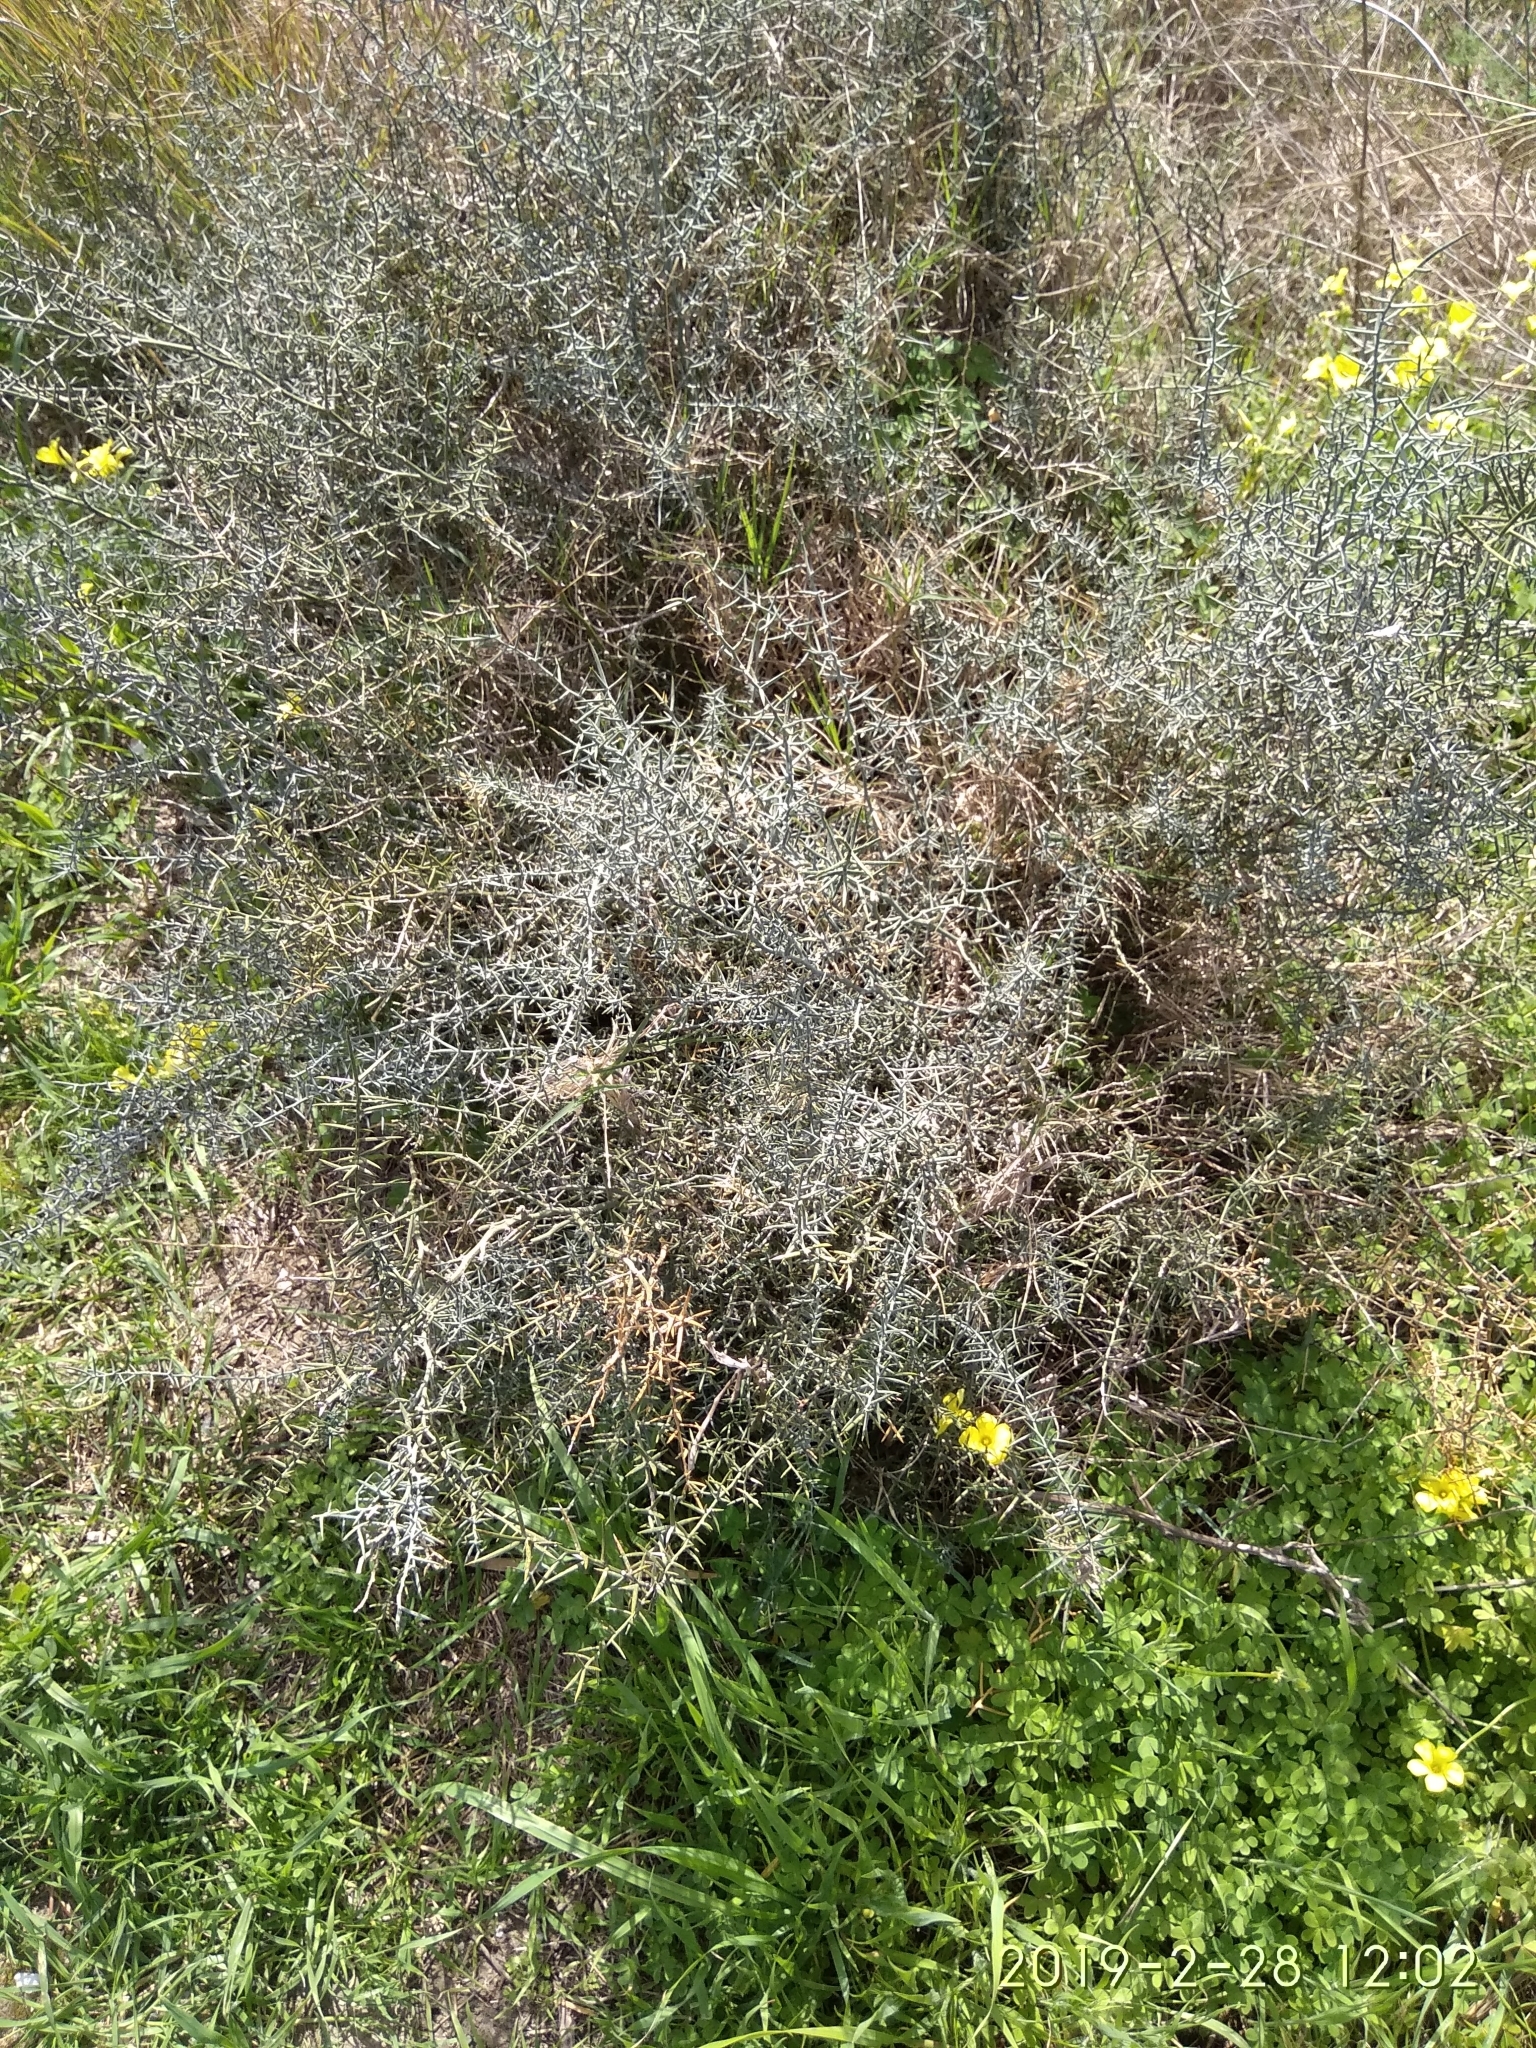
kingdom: Plantae
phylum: Tracheophyta
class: Liliopsida
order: Asparagales
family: Asparagaceae
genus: Asparagus
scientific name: Asparagus horridus
